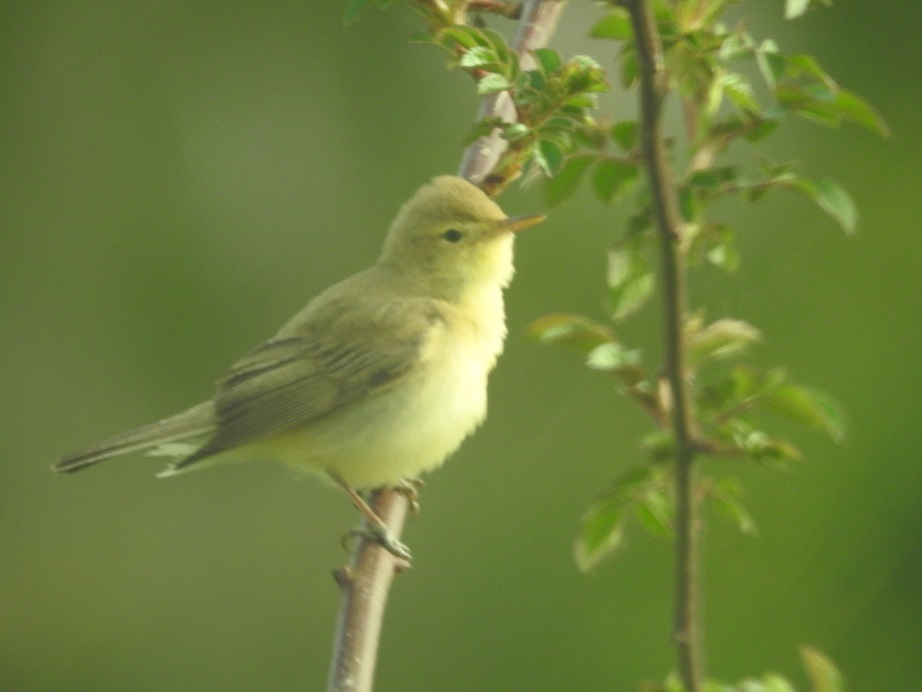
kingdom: Animalia
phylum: Chordata
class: Aves
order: Passeriformes
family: Acrocephalidae
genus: Hippolais
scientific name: Hippolais polyglotta
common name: Melodious warbler
